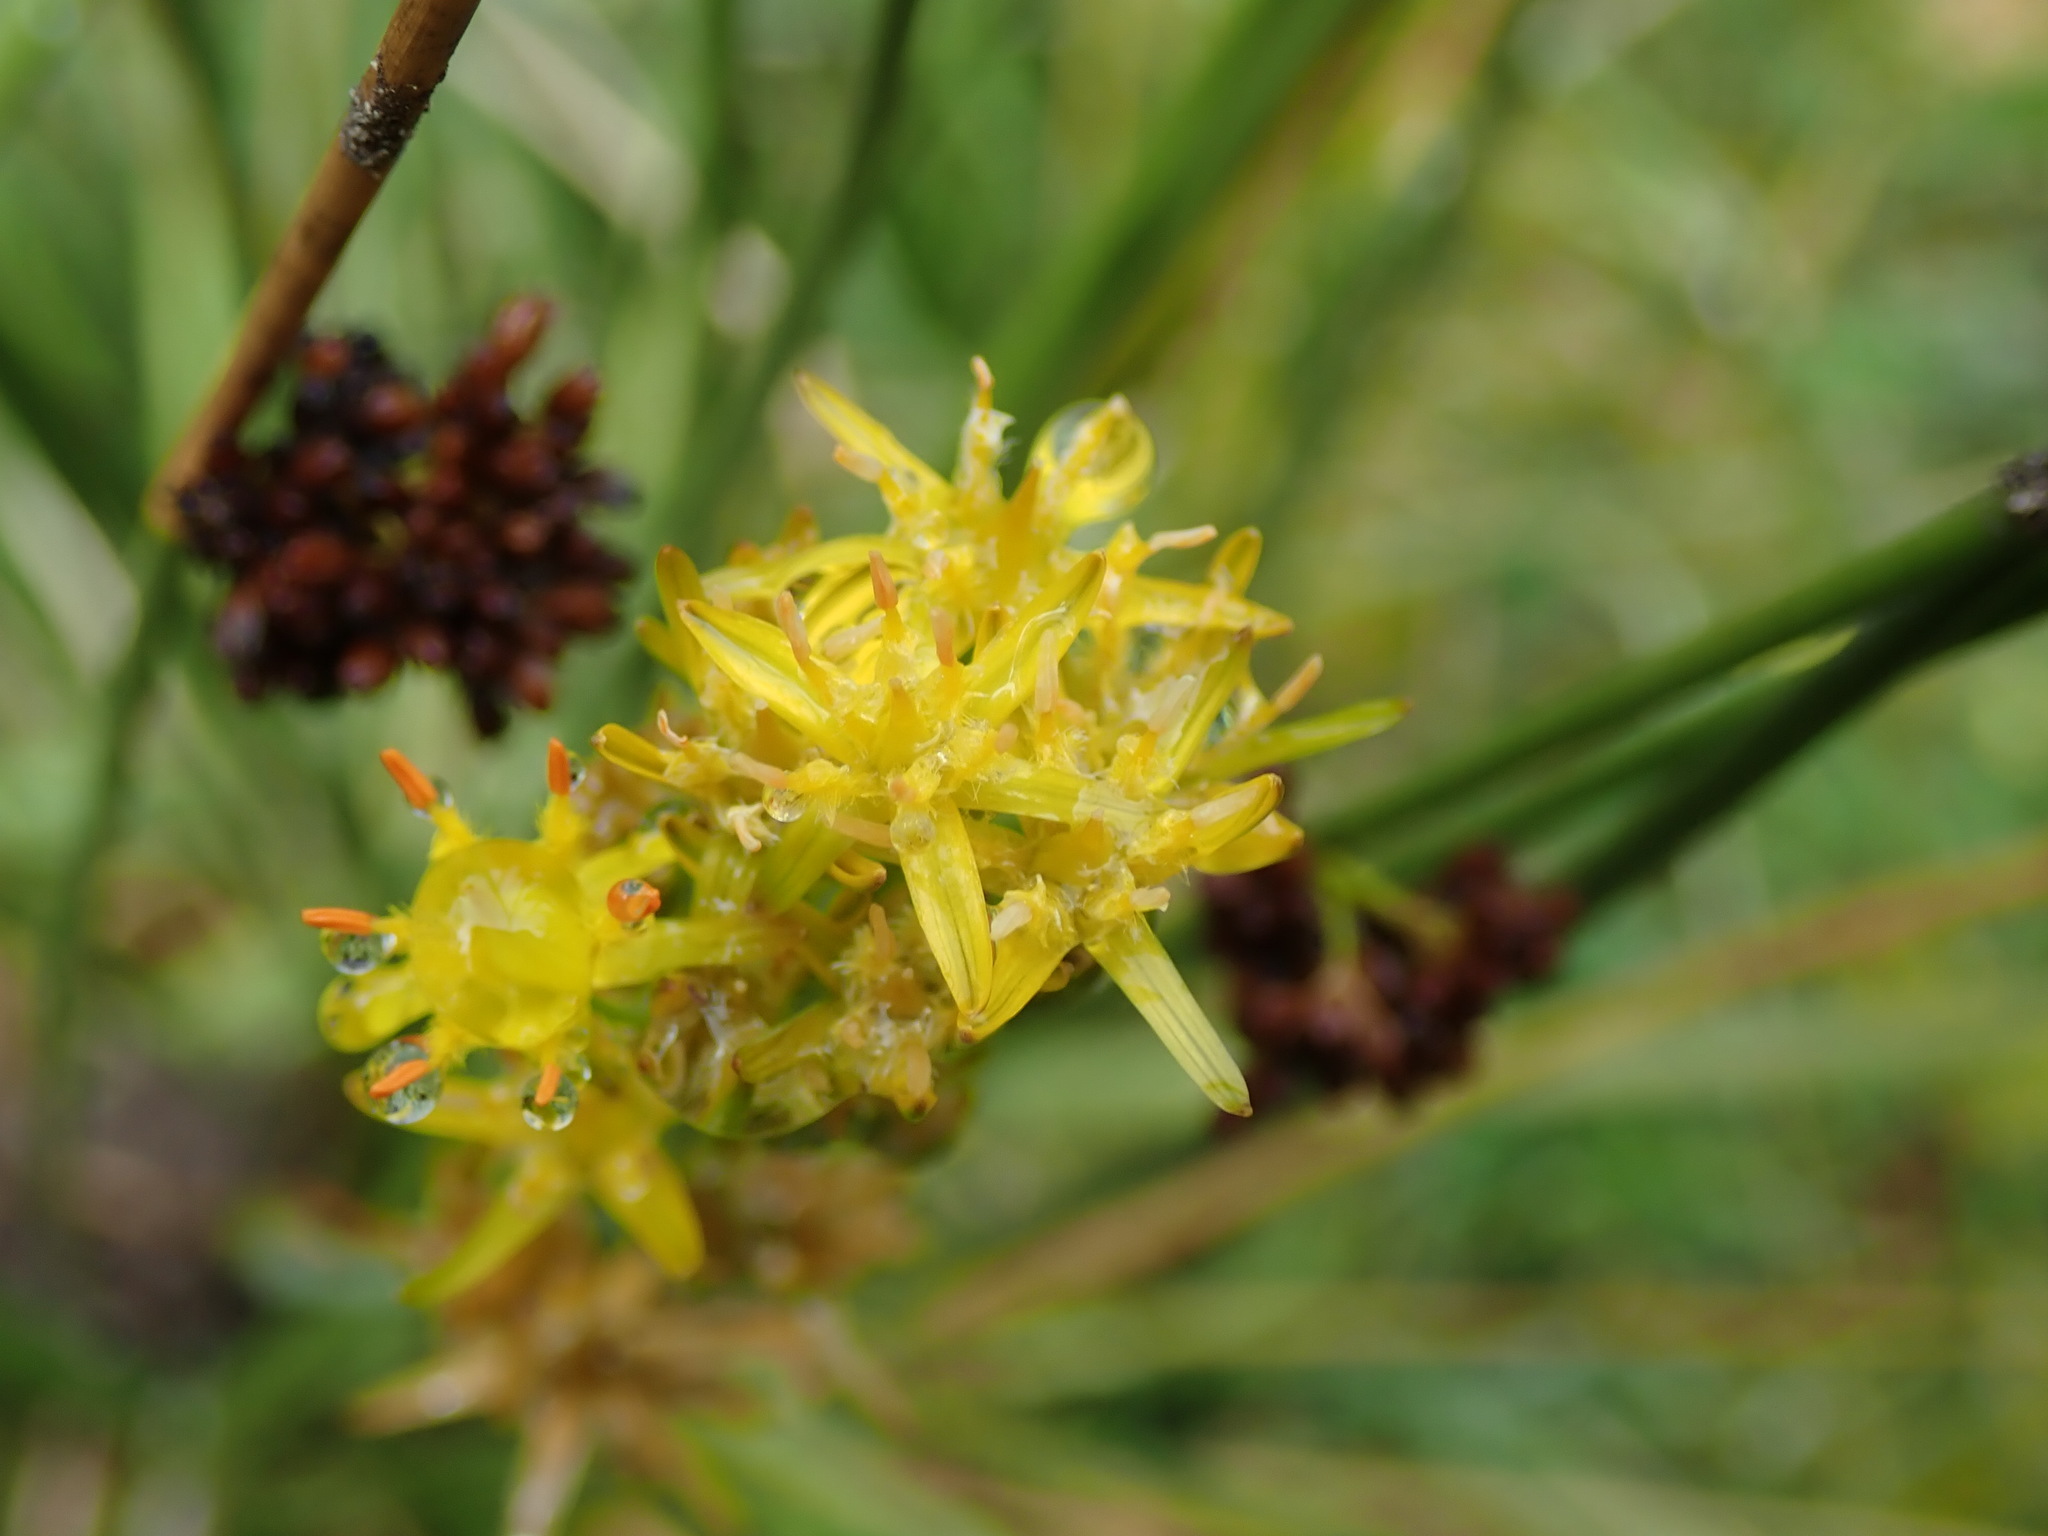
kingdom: Plantae
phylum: Tracheophyta
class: Magnoliopsida
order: Asterales
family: Asteraceae
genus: Galatella
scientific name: Galatella linosyris
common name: Goldilocks aster
